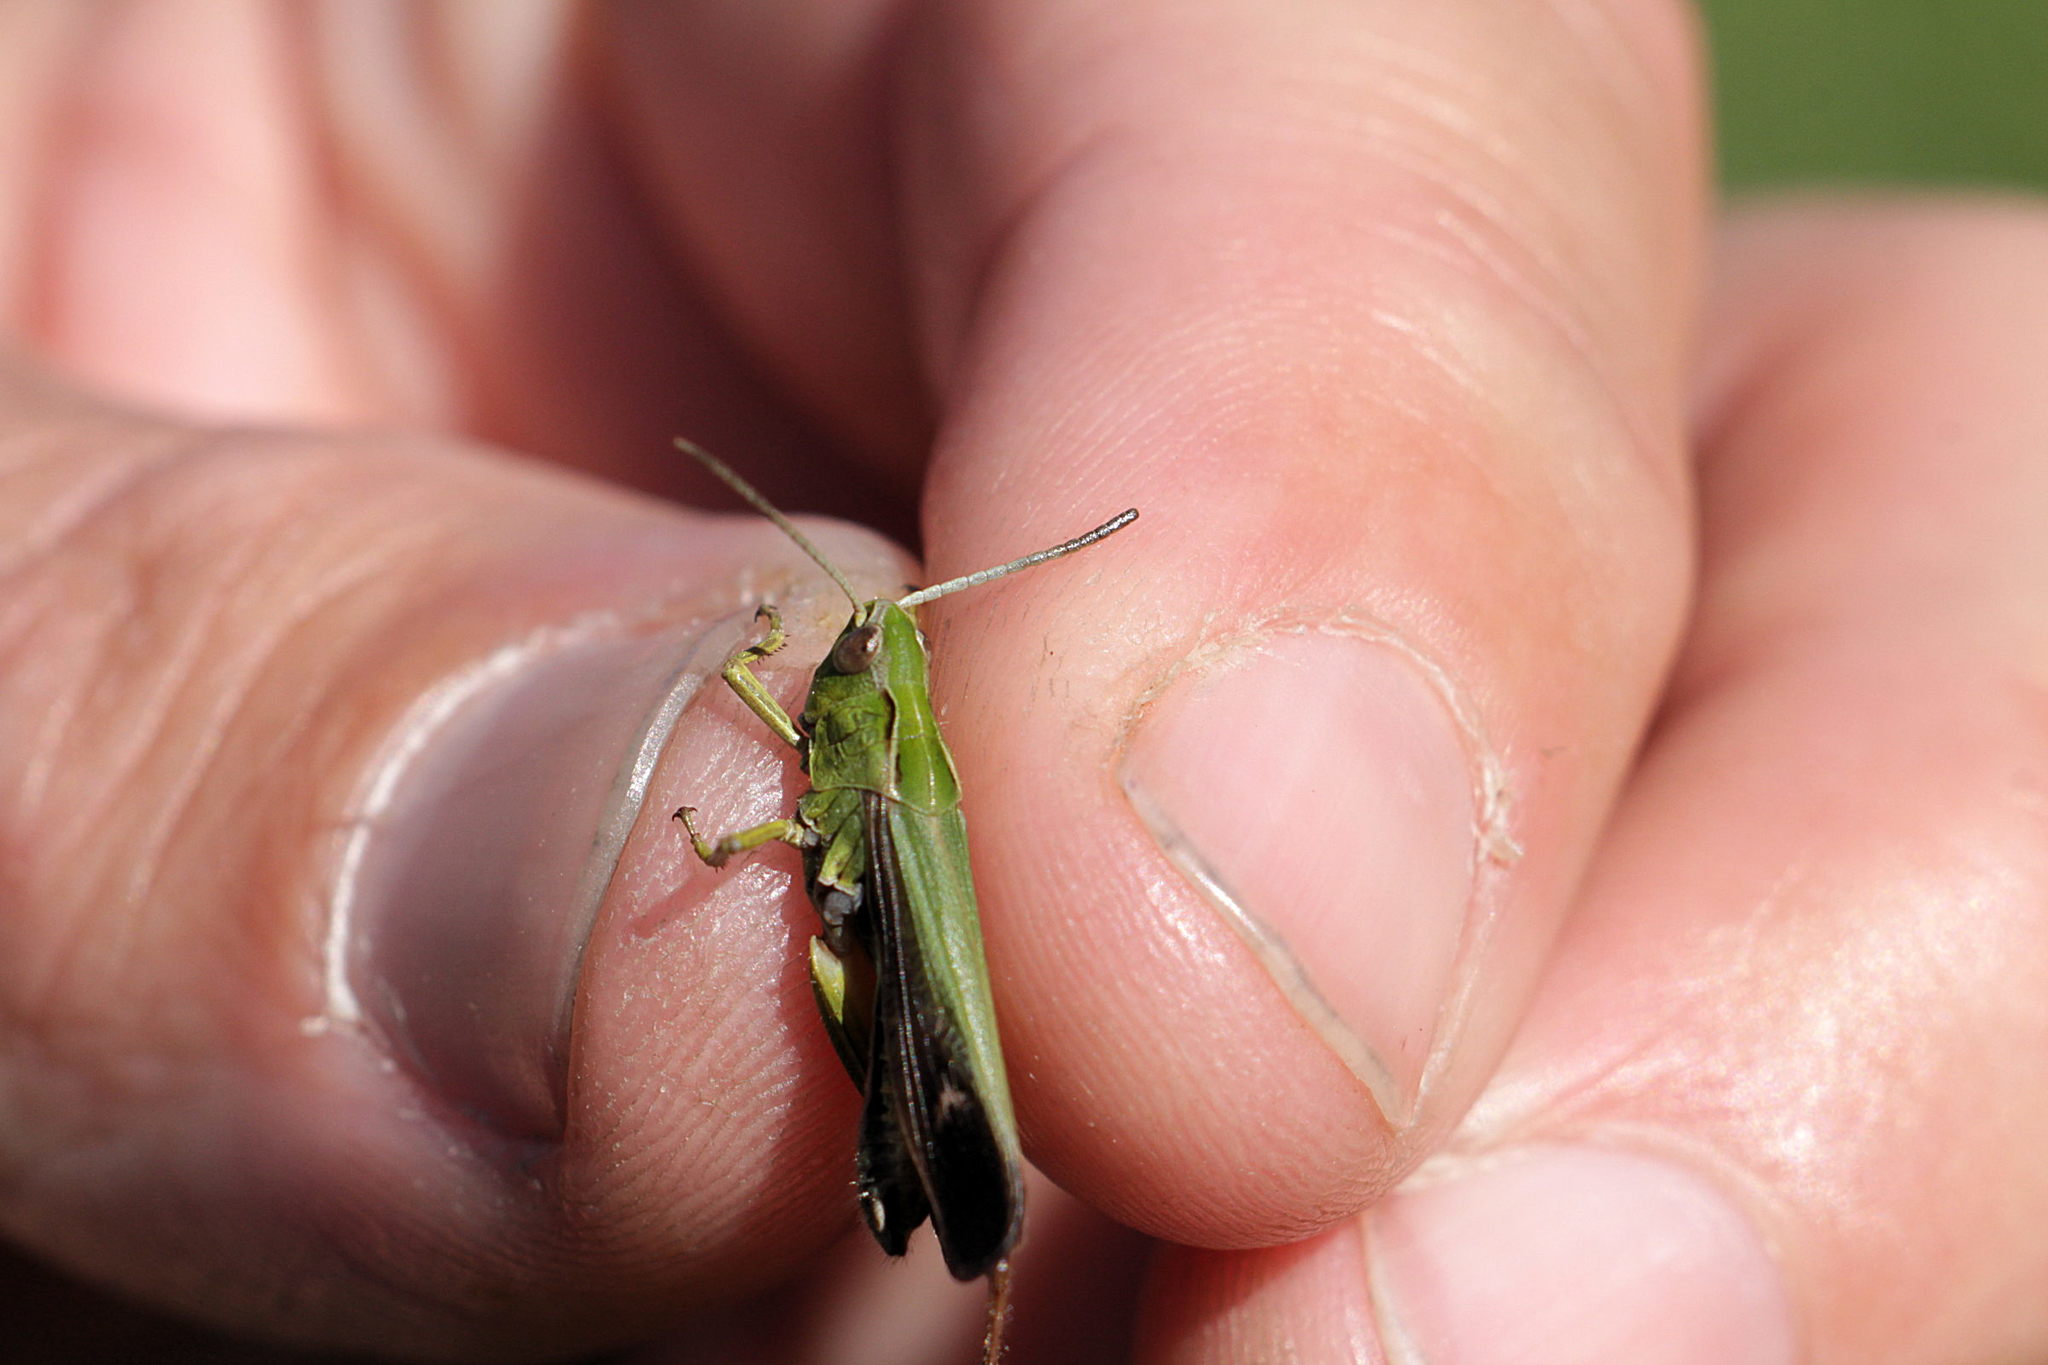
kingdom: Animalia
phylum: Arthropoda
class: Insecta
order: Orthoptera
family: Acrididae
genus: Omocestus
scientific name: Omocestus viridulus
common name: Common green grasshopper
